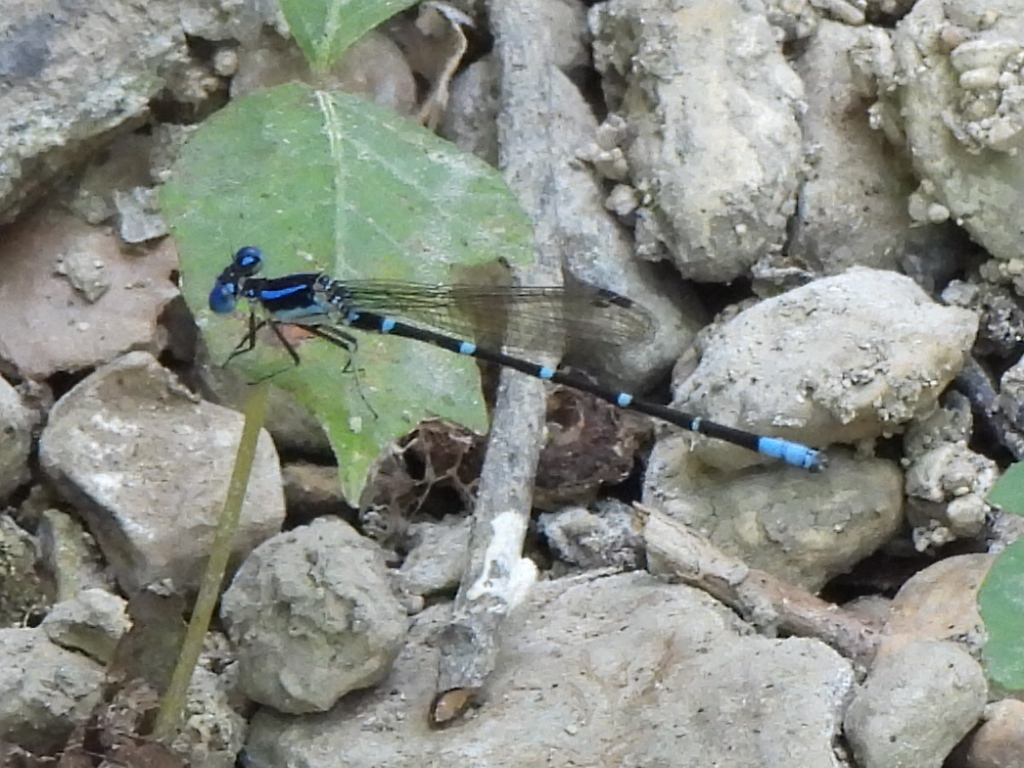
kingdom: Animalia
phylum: Arthropoda
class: Insecta
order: Odonata
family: Coenagrionidae
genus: Argia
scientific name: Argia sedula
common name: Blue-ringed dancer
